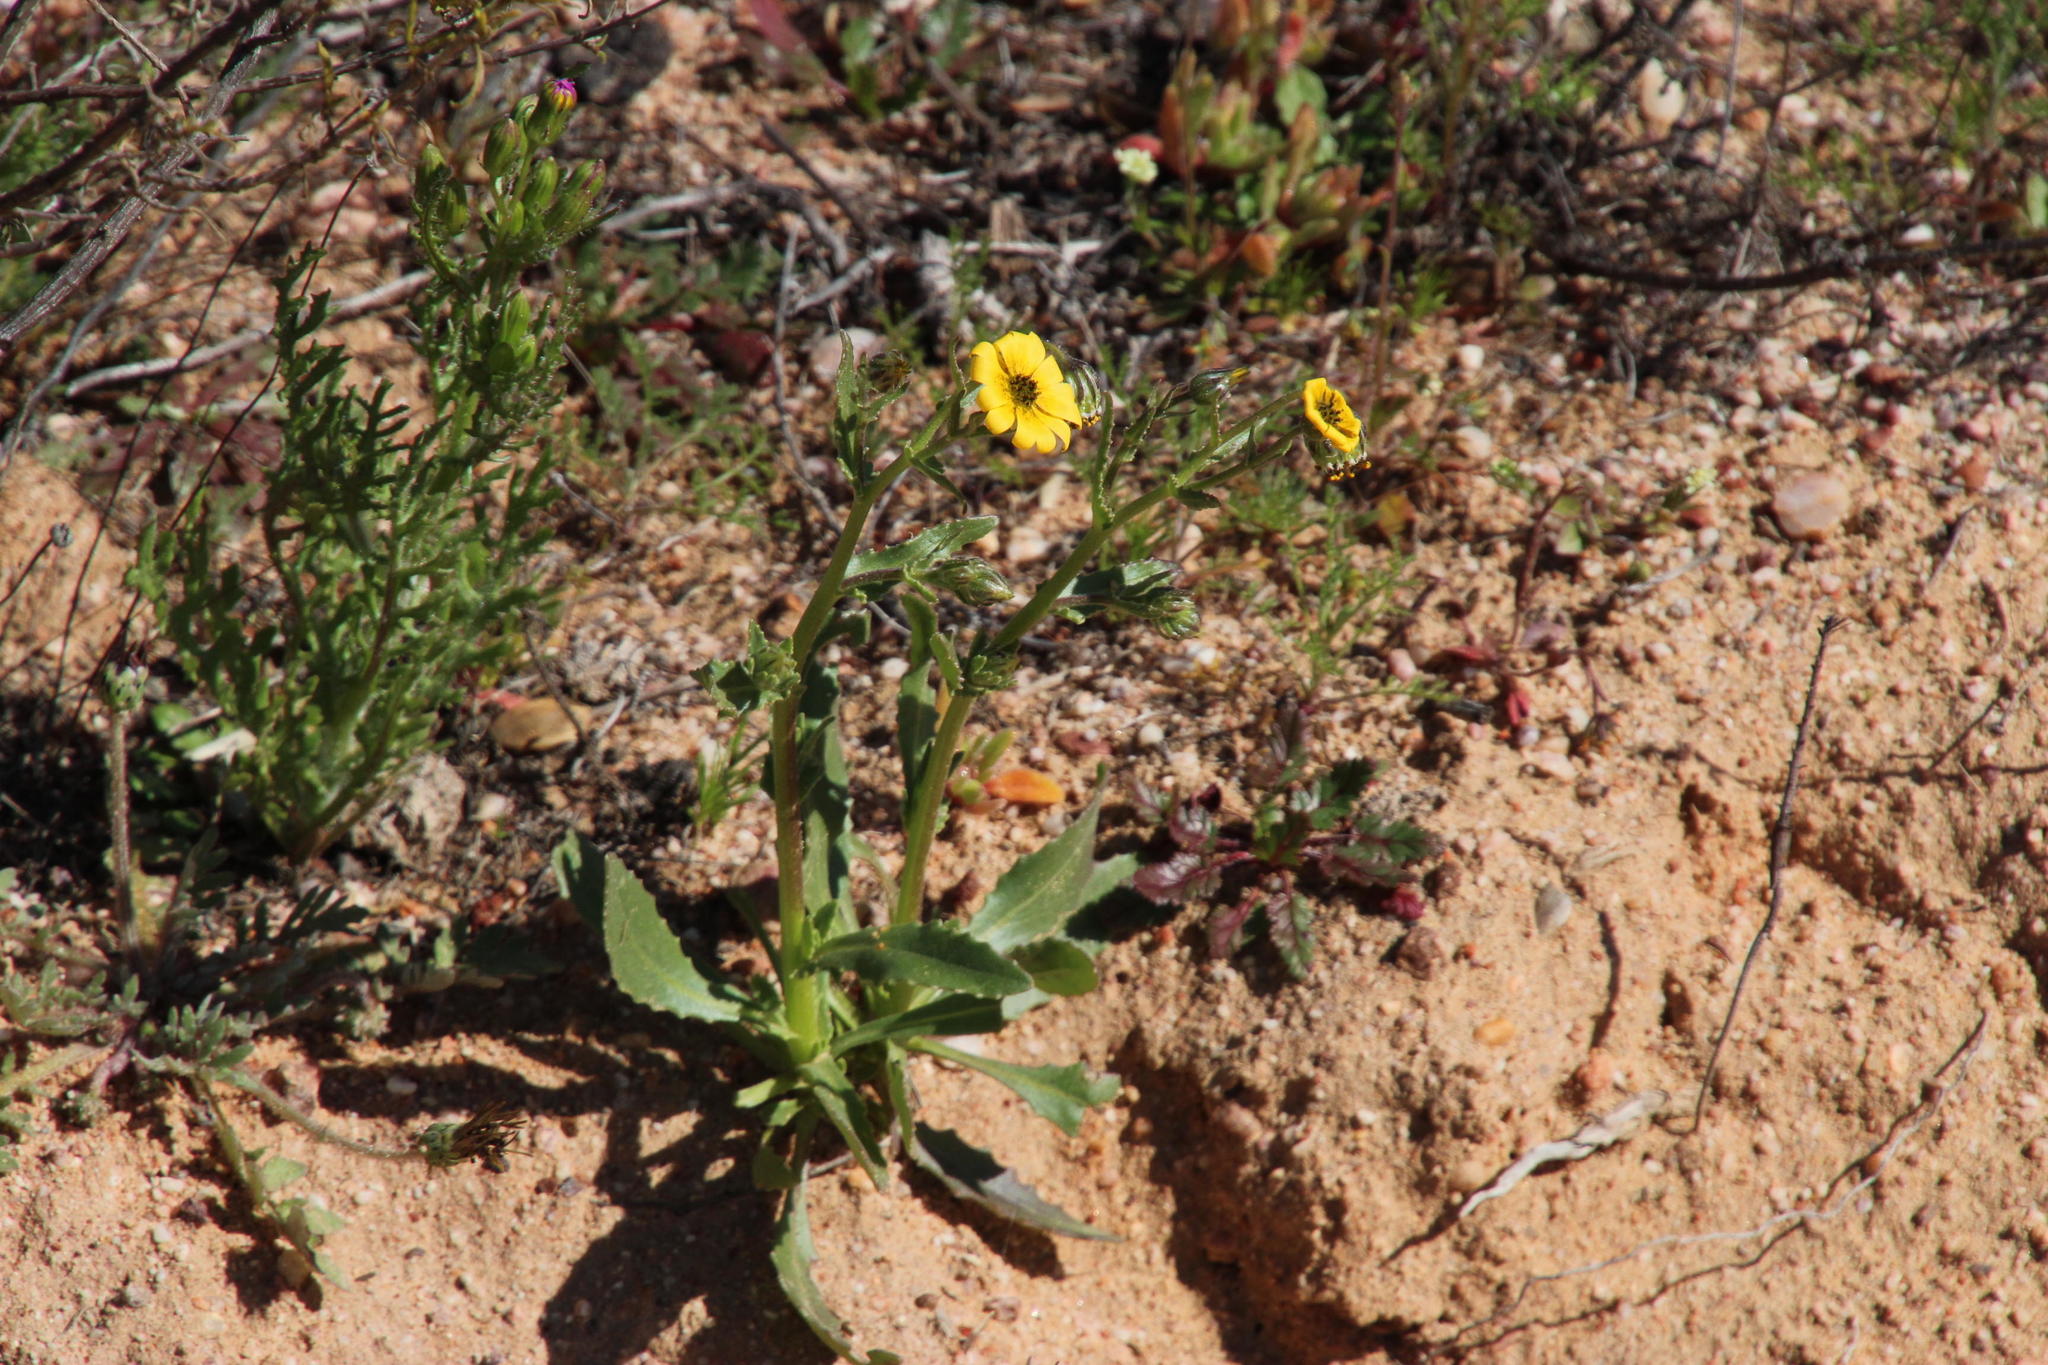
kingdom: Plantae
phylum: Tracheophyta
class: Magnoliopsida
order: Asterales
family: Asteraceae
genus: Osteospermum
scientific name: Osteospermum monstrosum
